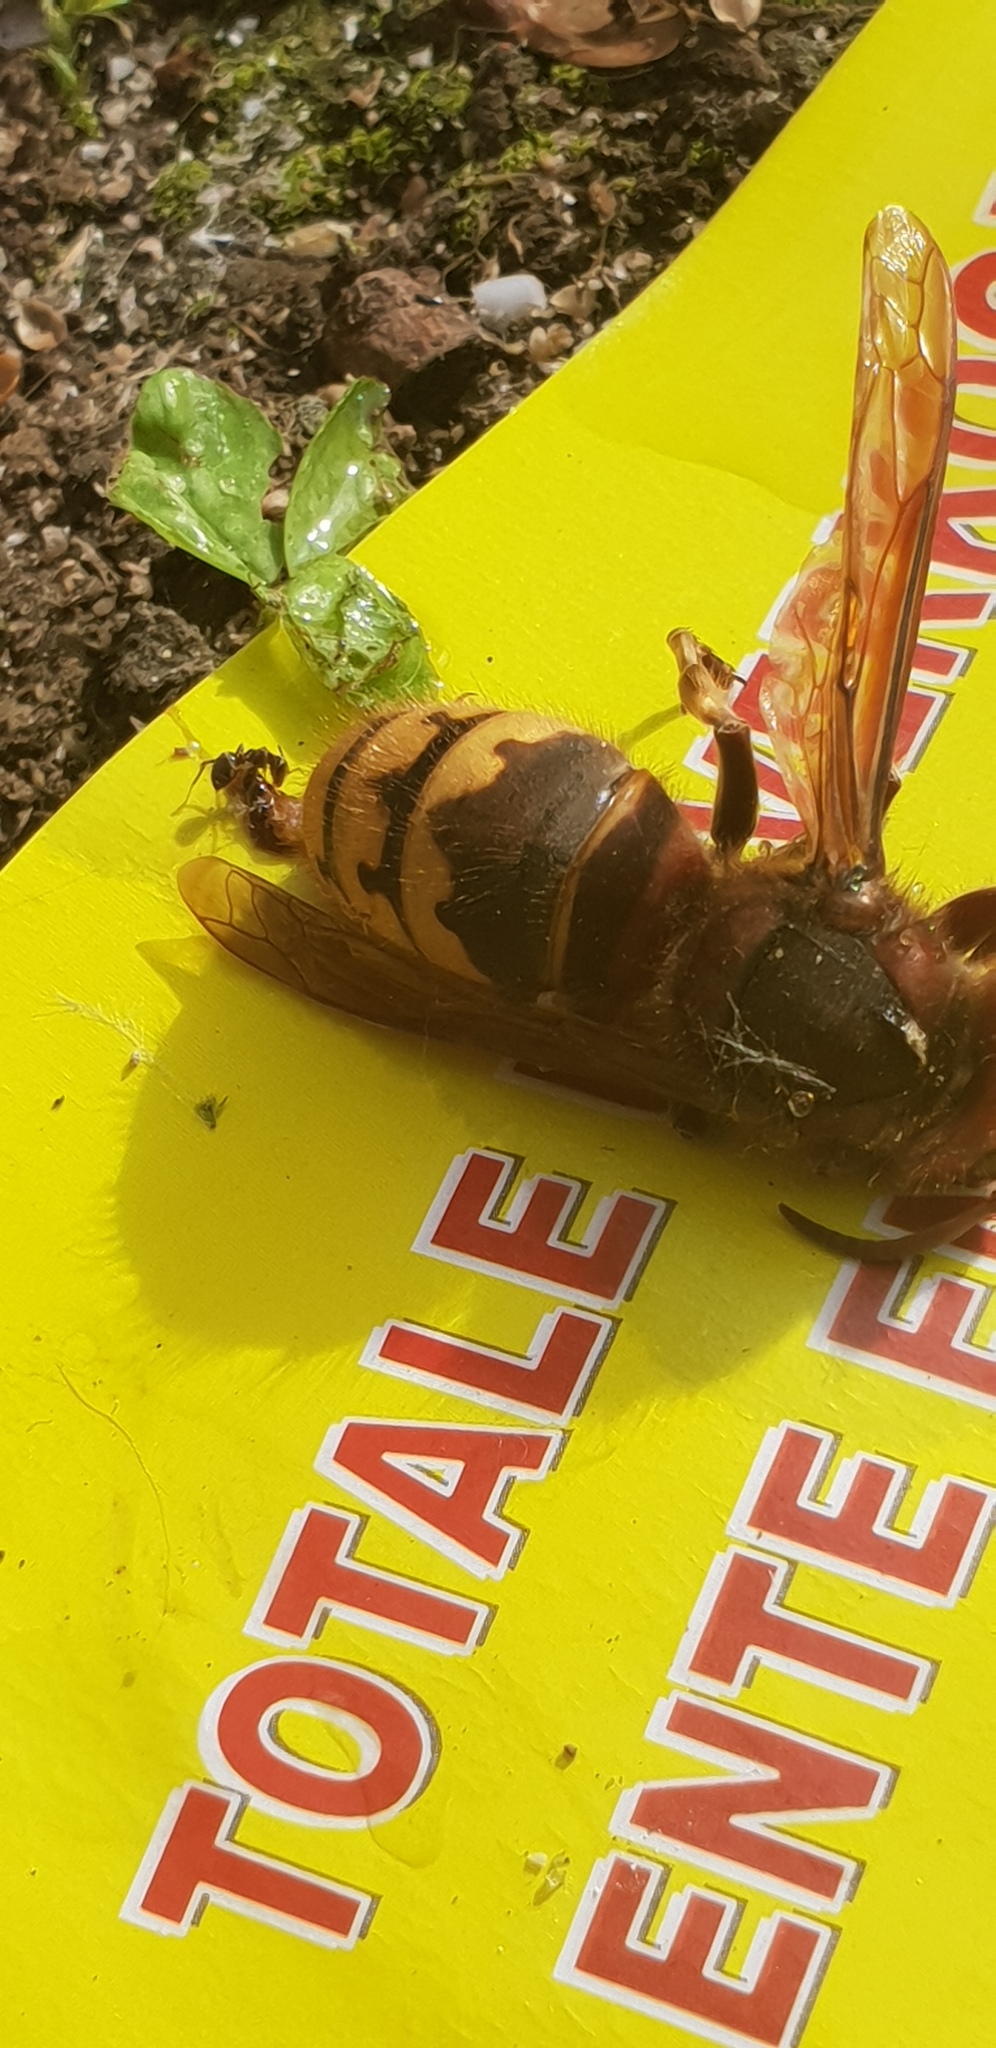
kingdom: Animalia
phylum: Arthropoda
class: Insecta
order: Hymenoptera
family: Vespidae
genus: Vespa
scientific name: Vespa crabro
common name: Hornet
